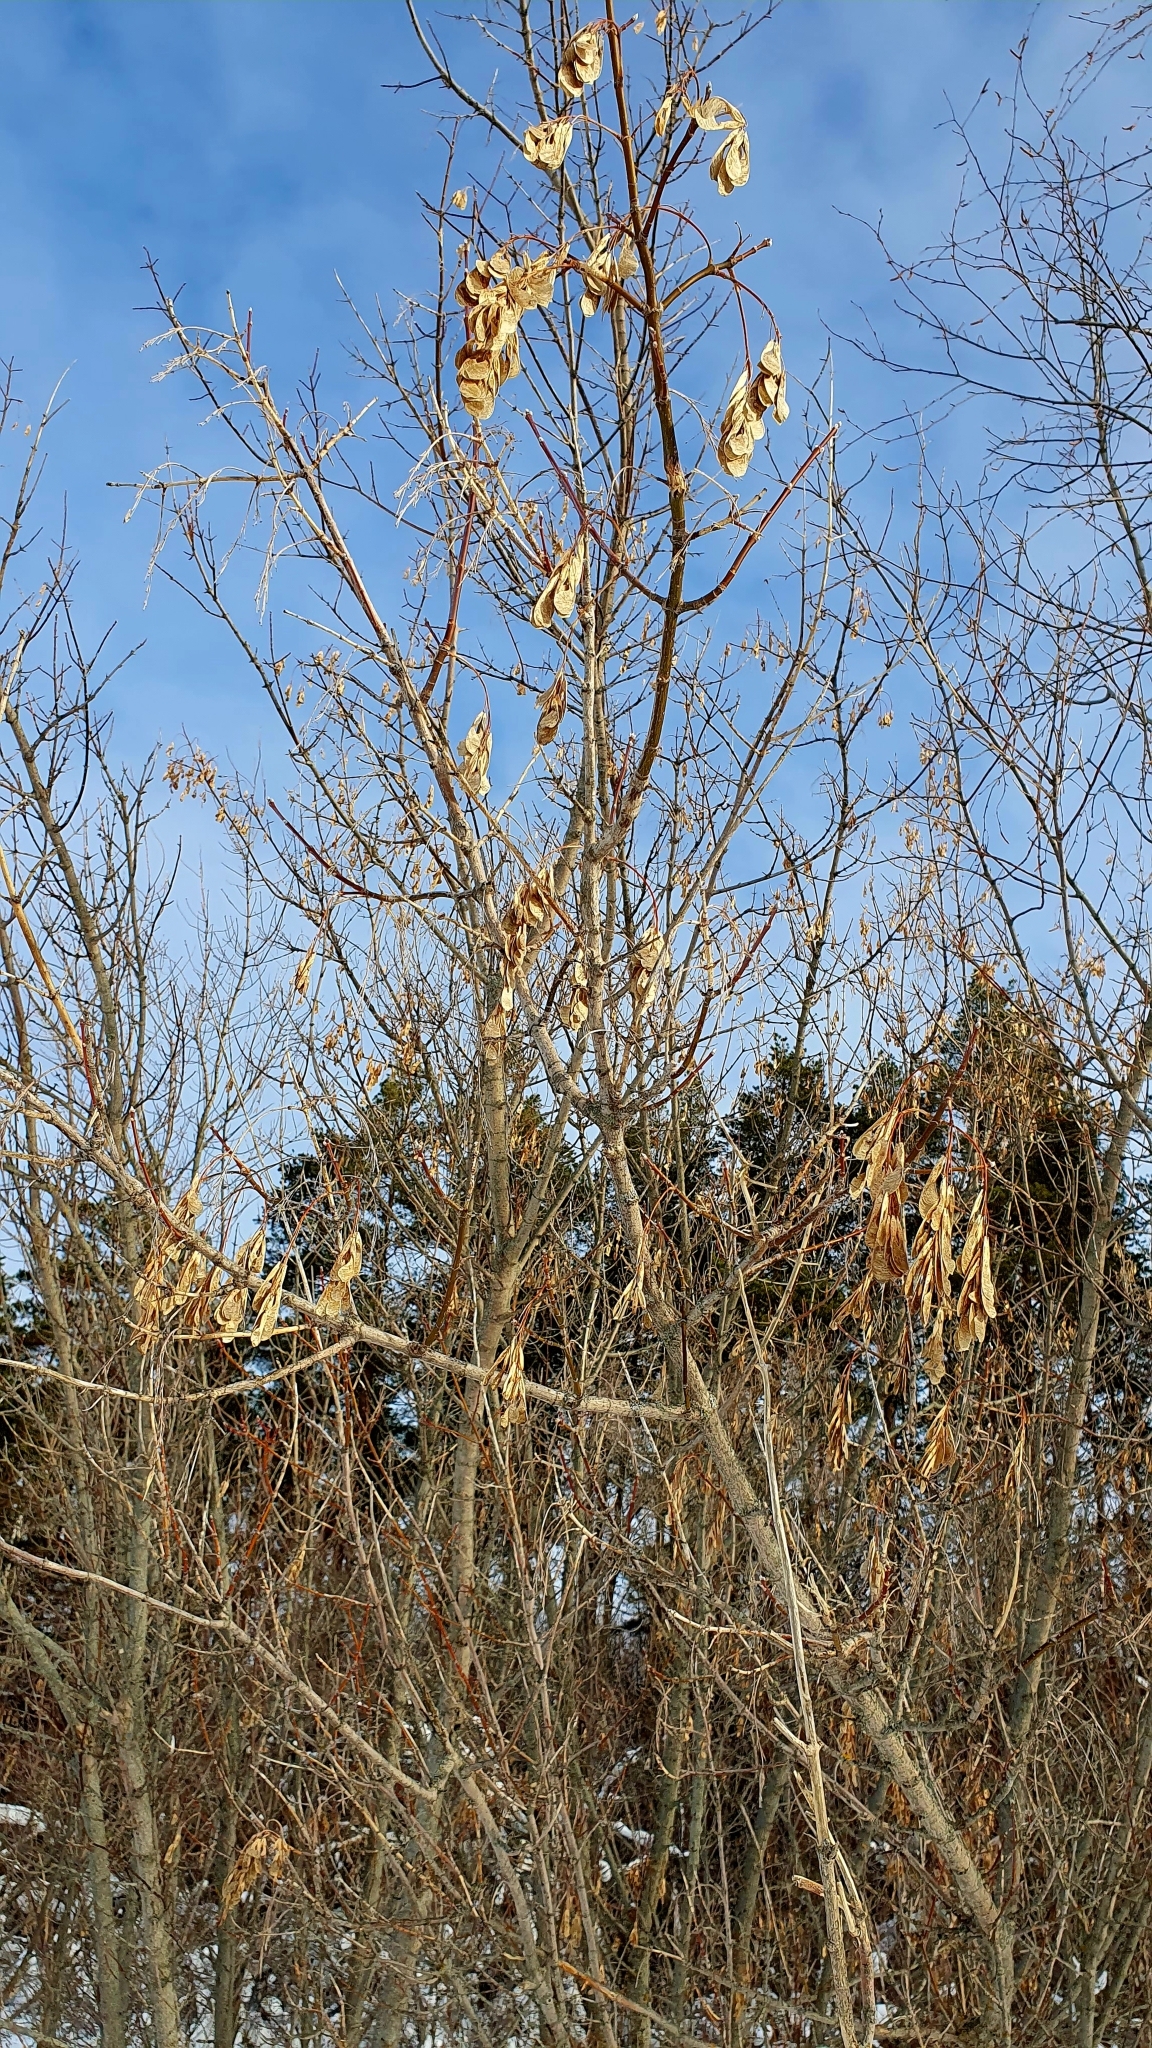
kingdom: Plantae
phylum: Tracheophyta
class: Magnoliopsida
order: Sapindales
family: Sapindaceae
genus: Acer
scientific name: Acer negundo
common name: Ashleaf maple
